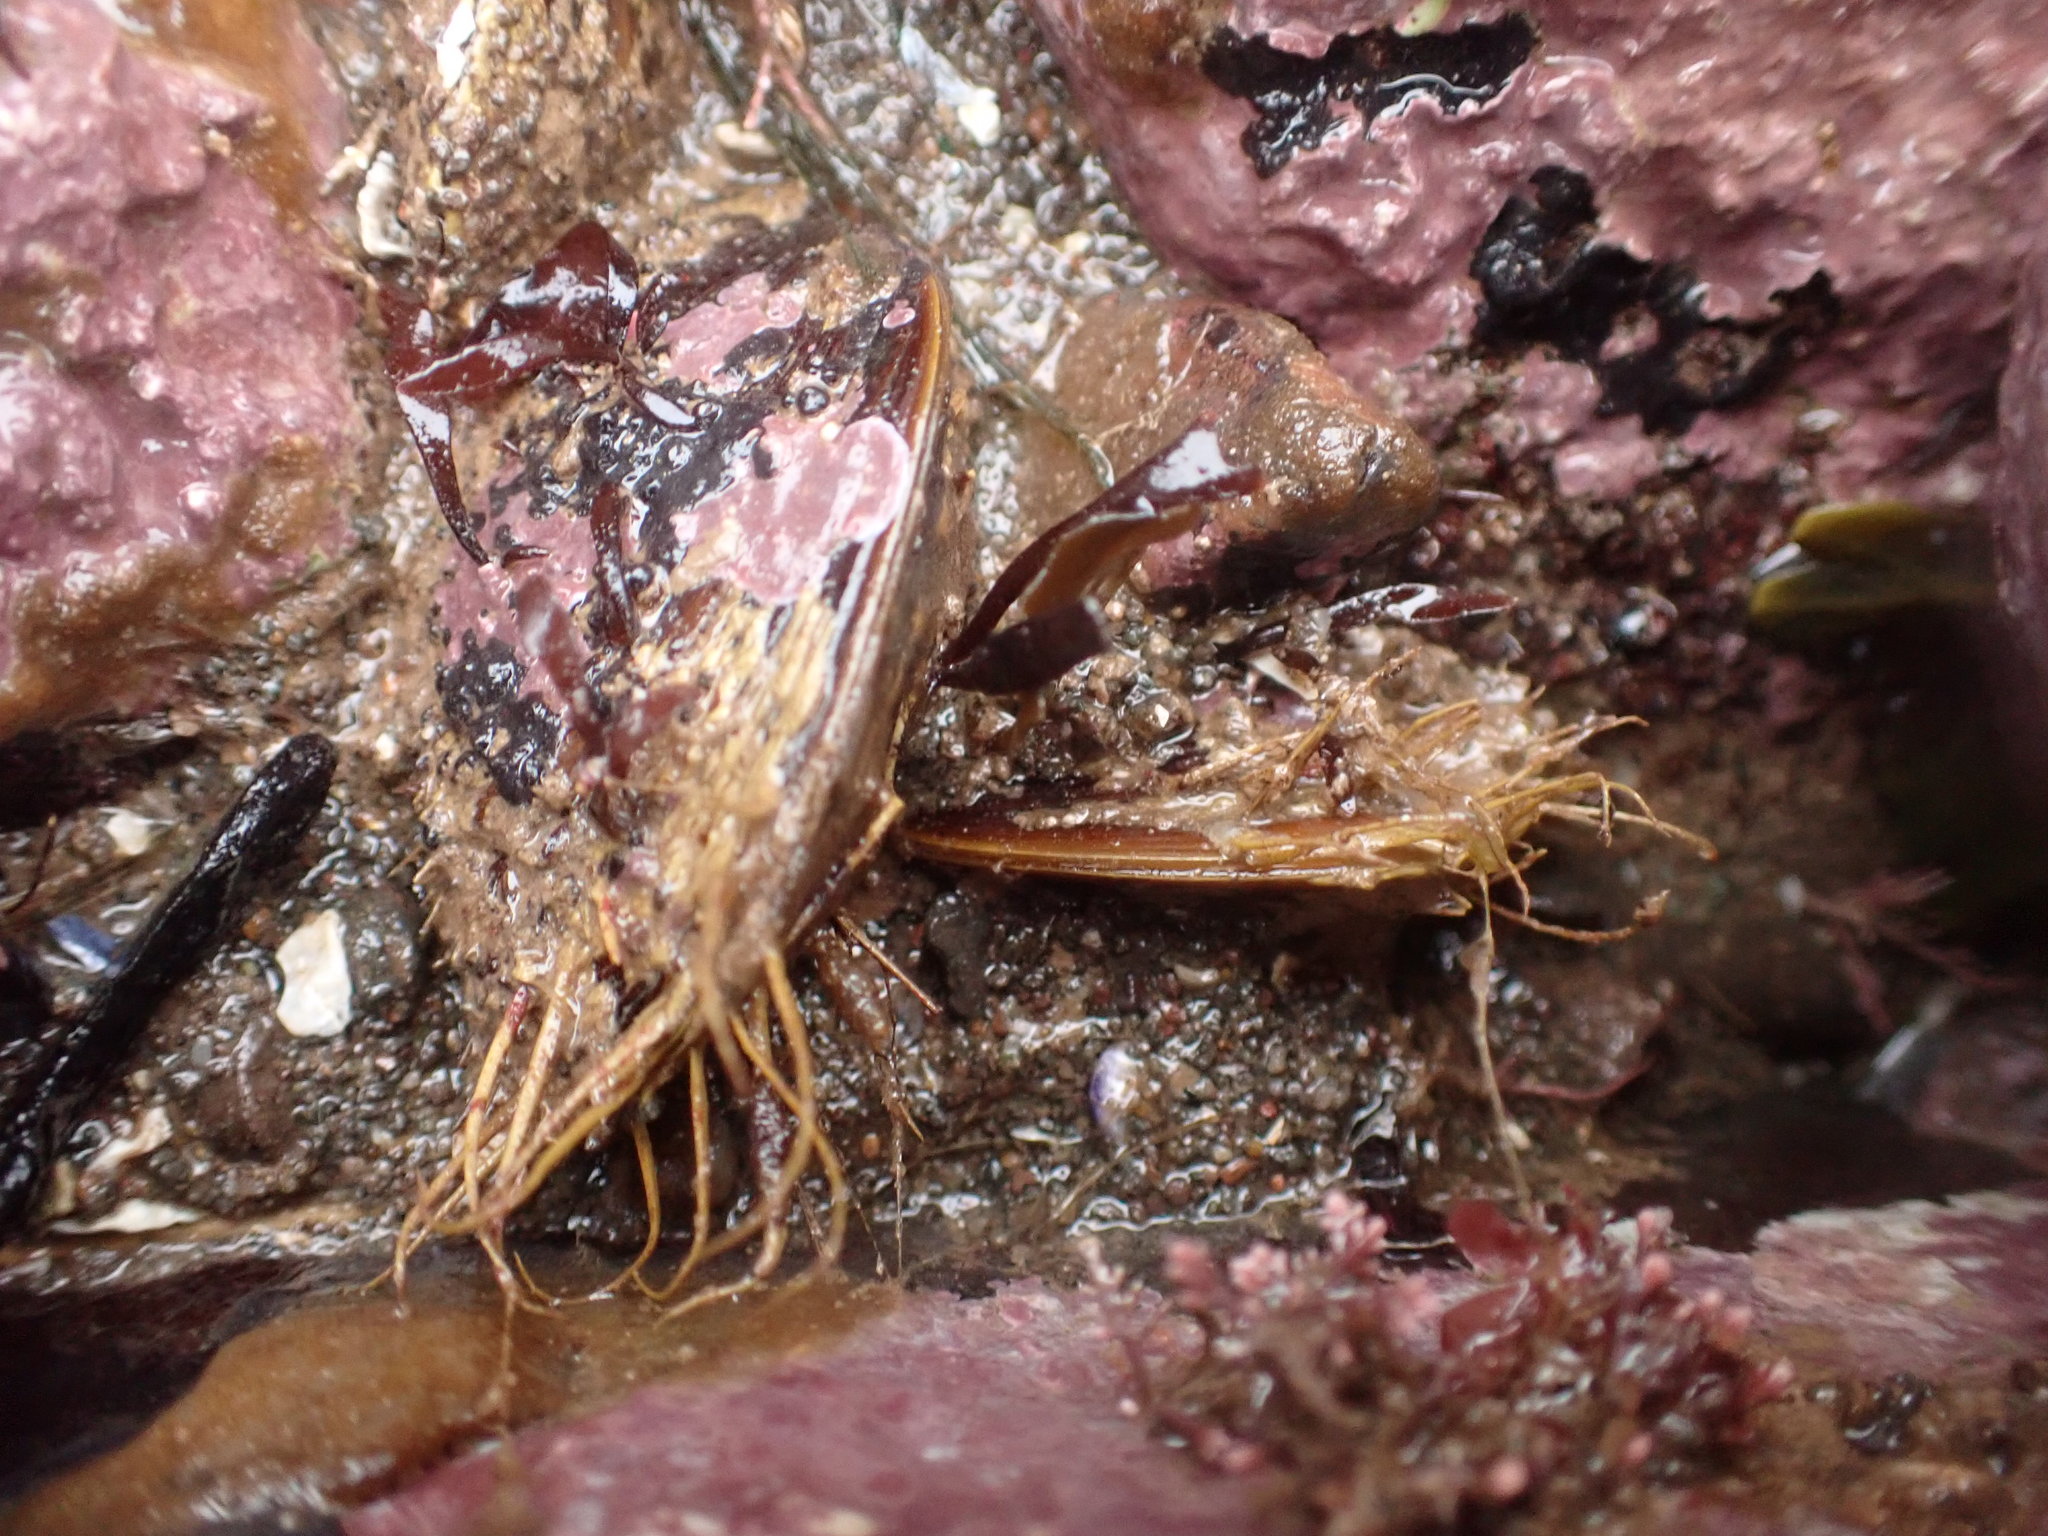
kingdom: Animalia
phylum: Mollusca
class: Bivalvia
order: Mytilida
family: Mytilidae
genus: Modiolus
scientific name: Modiolus modiolus
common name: Horse-mussel
